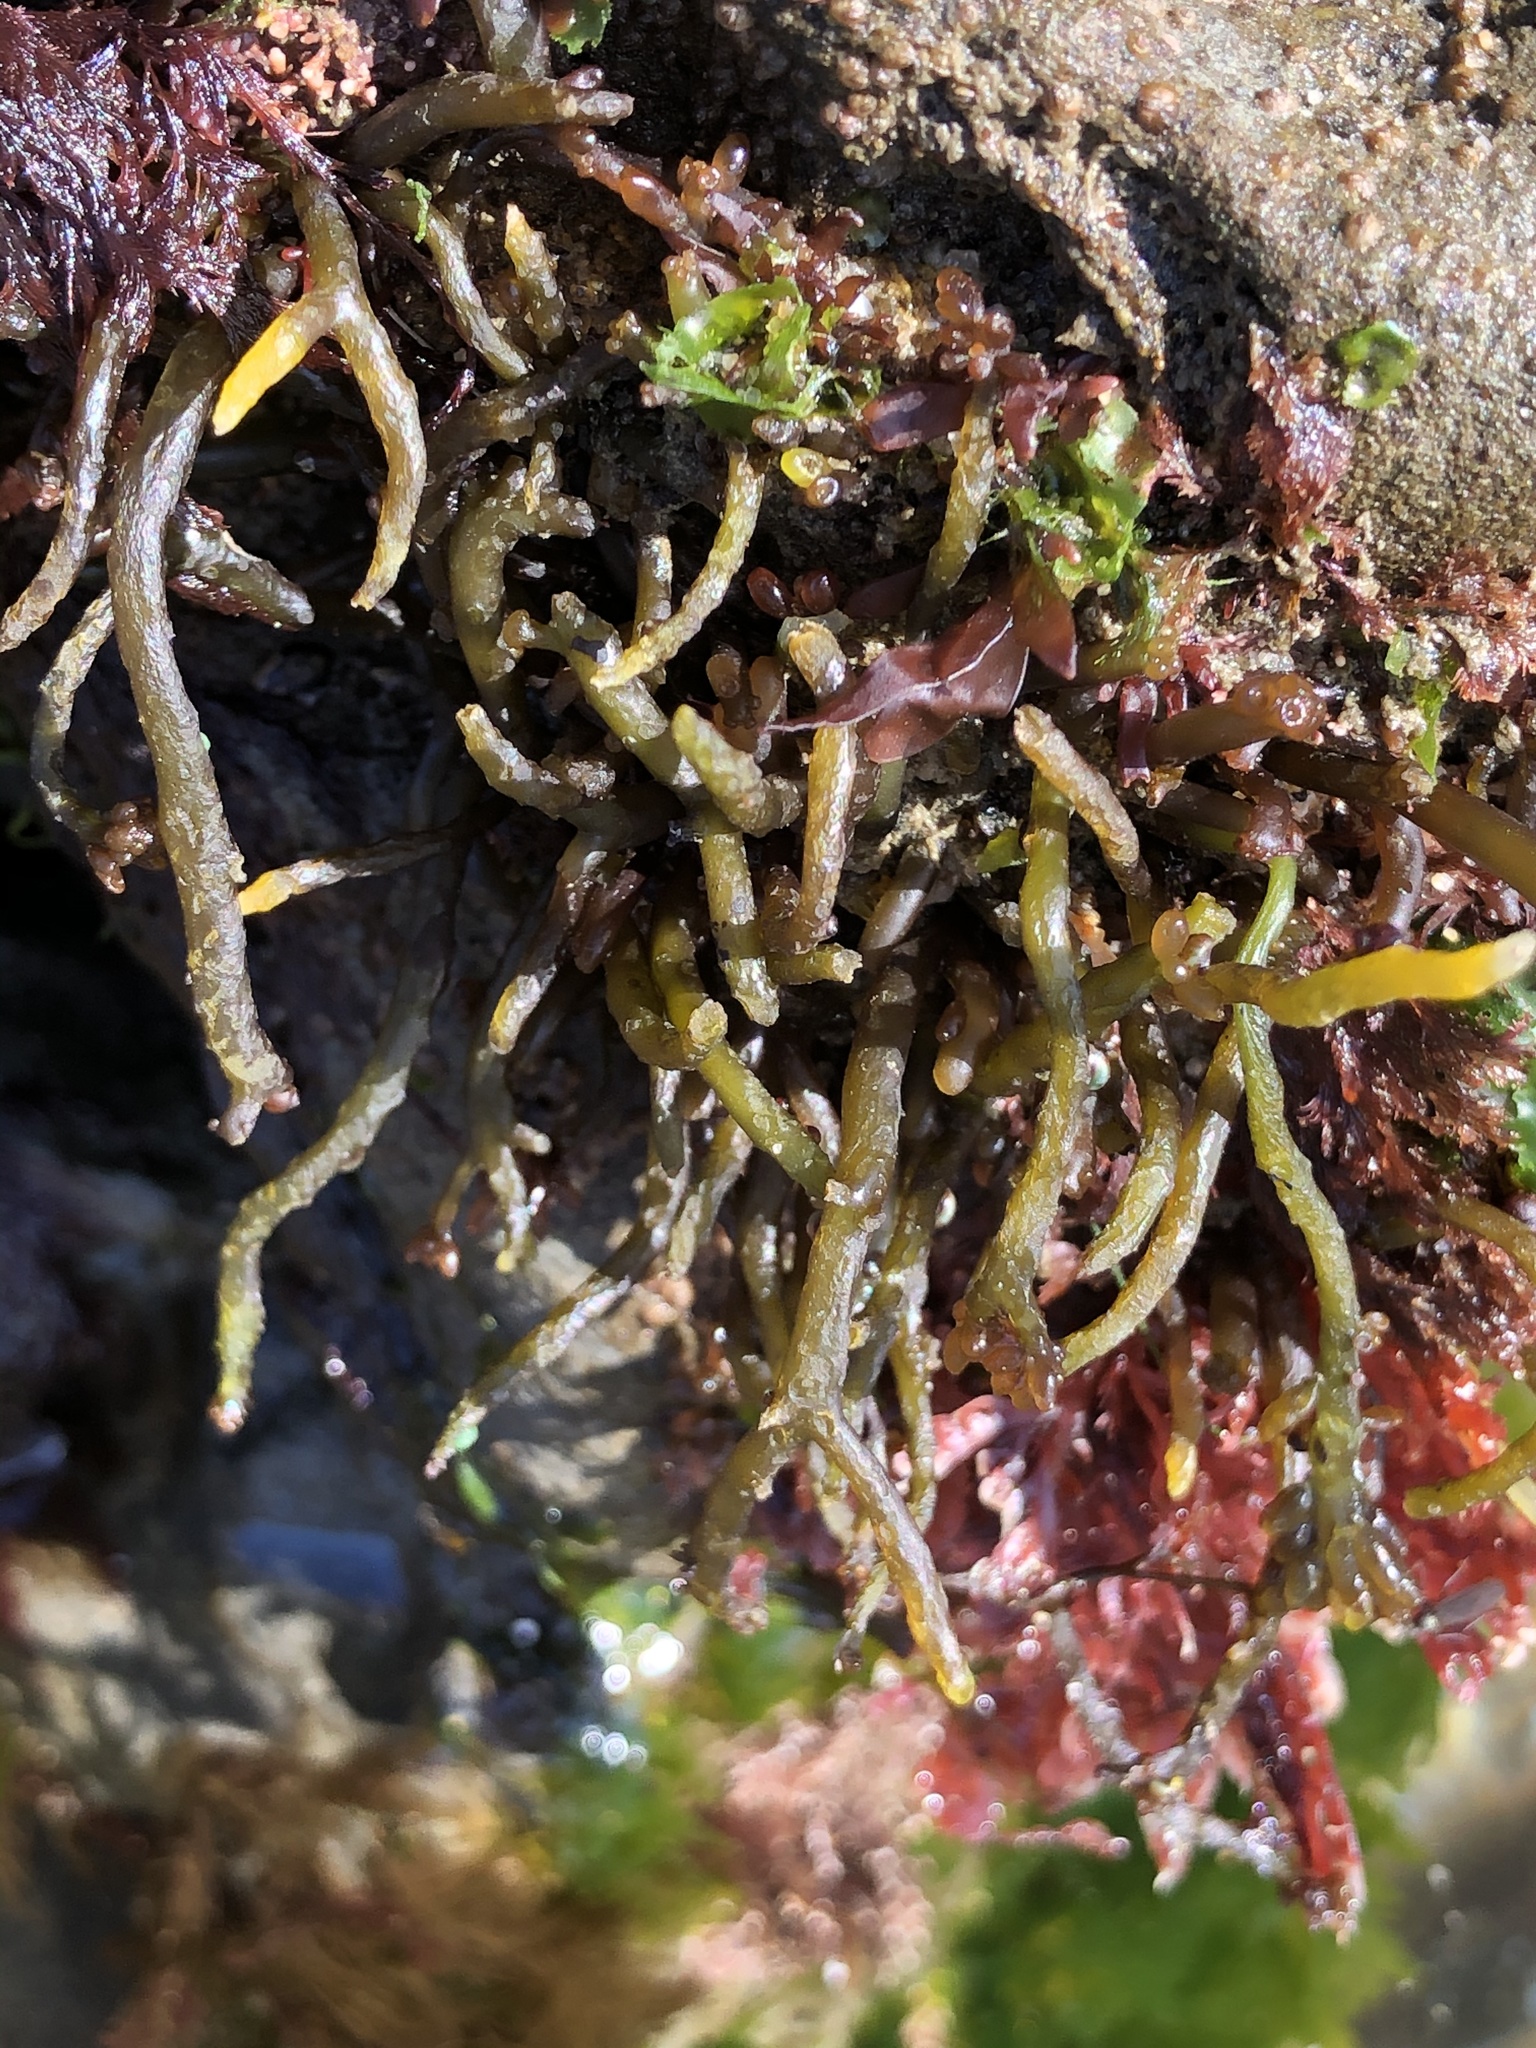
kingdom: Plantae
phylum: Rhodophyta
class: Florideophyceae
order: Rhodymeniales
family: Champiaceae
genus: Neogastroclonium
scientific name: Neogastroclonium subarticulatum
